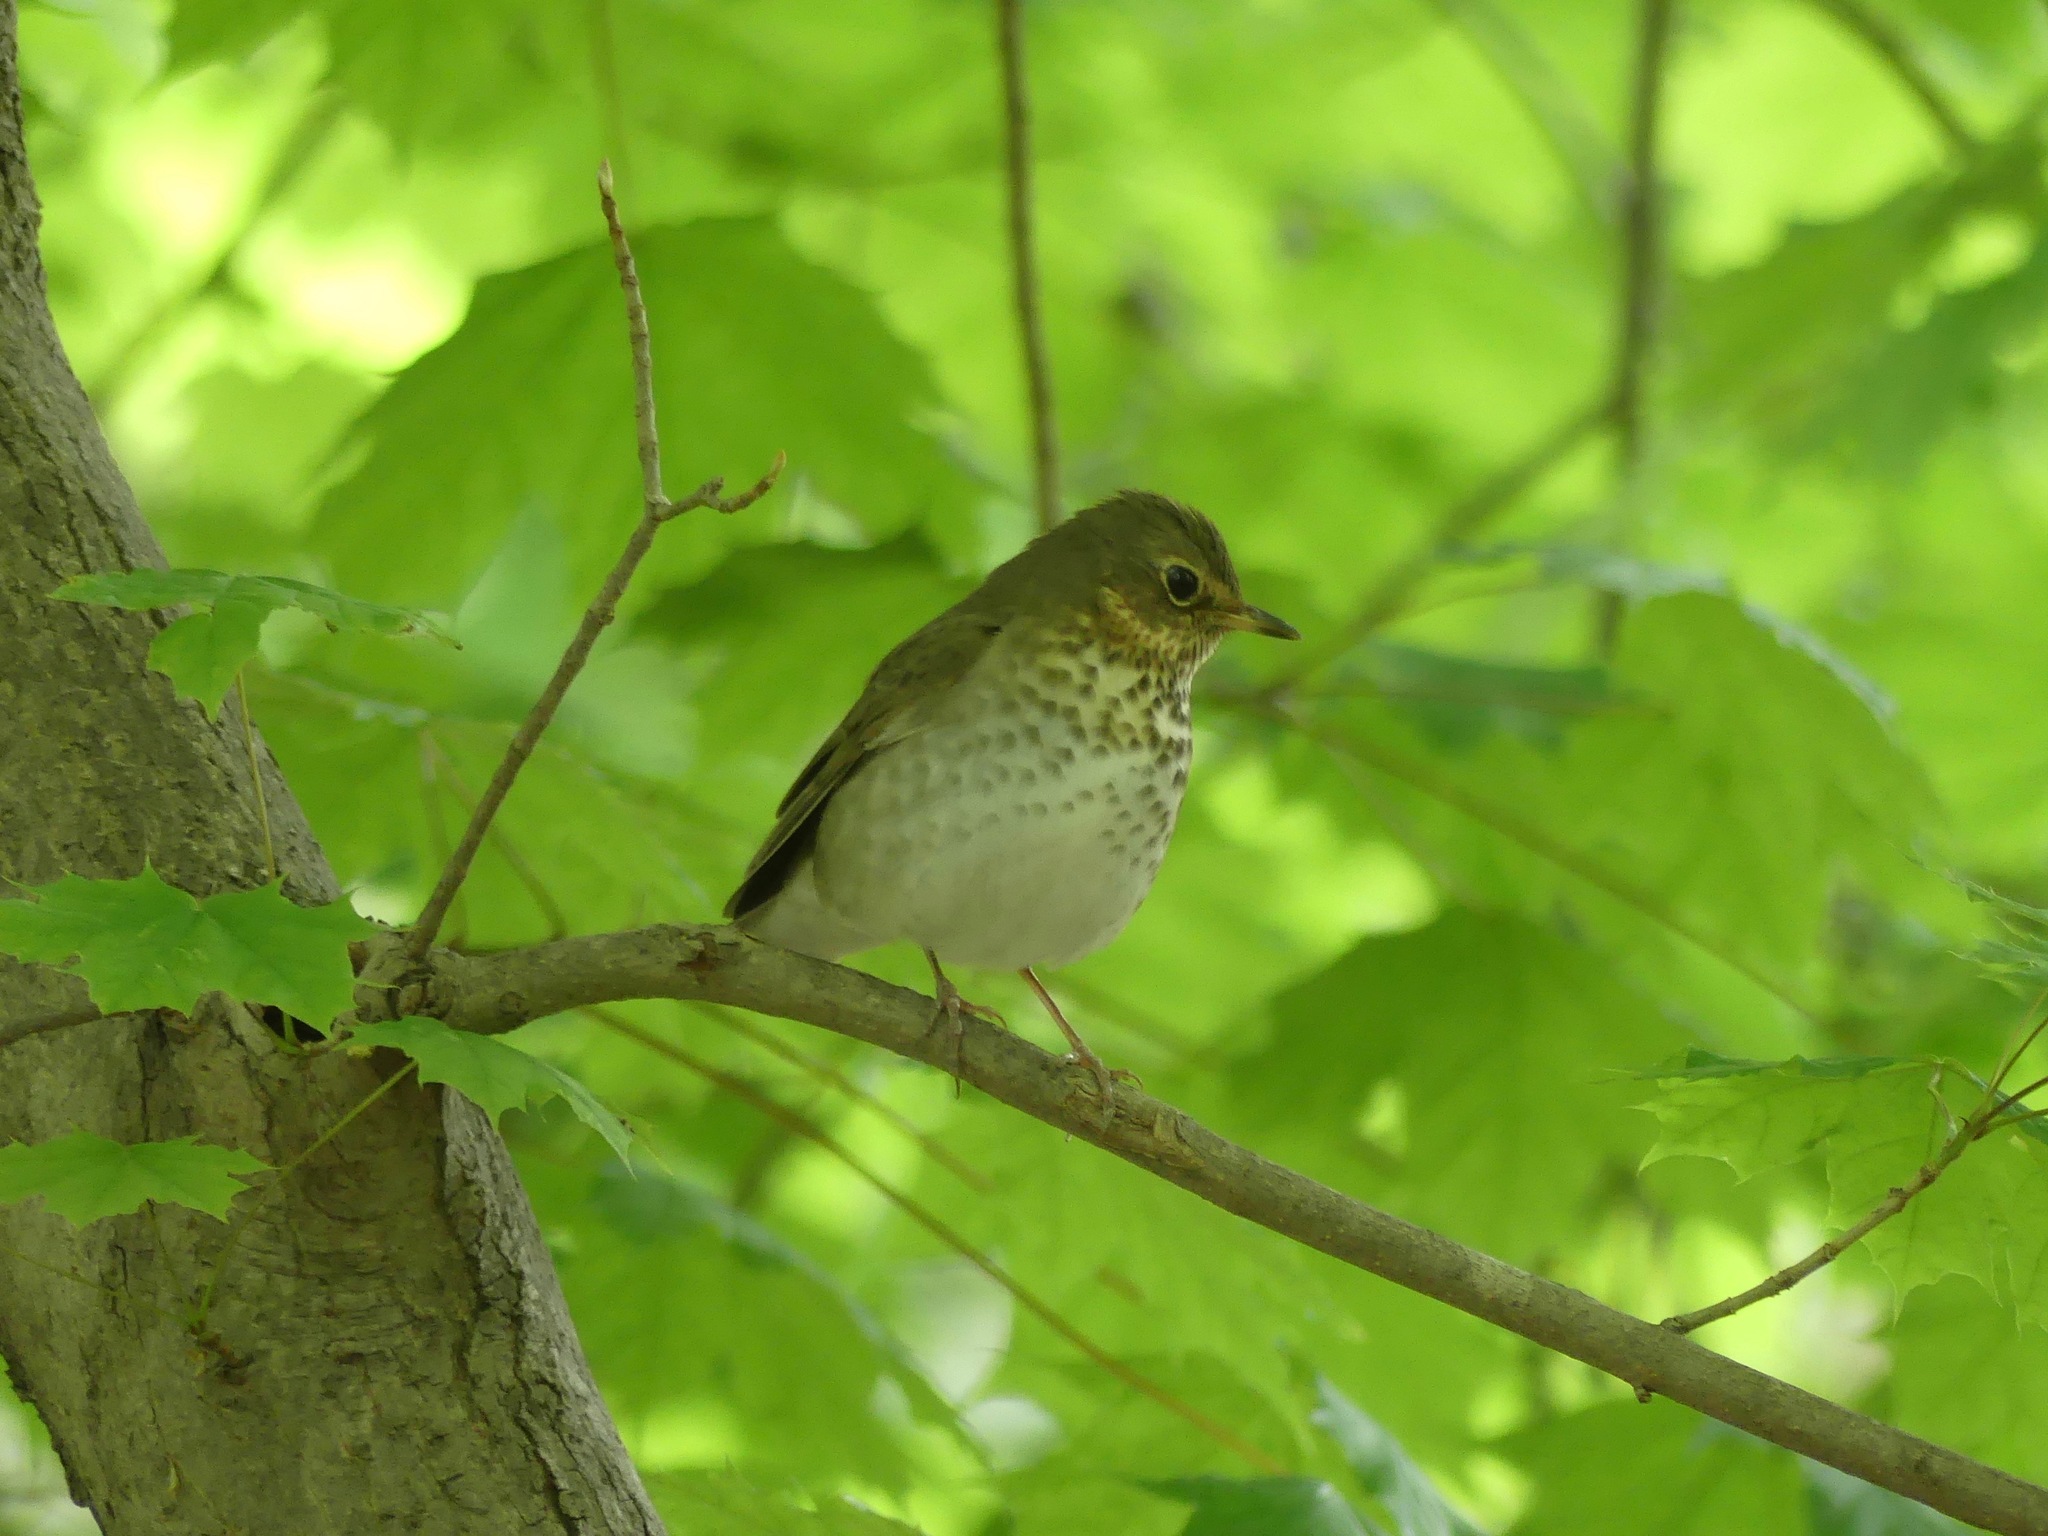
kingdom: Animalia
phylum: Chordata
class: Aves
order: Passeriformes
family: Turdidae
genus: Catharus
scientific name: Catharus ustulatus
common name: Swainson's thrush
